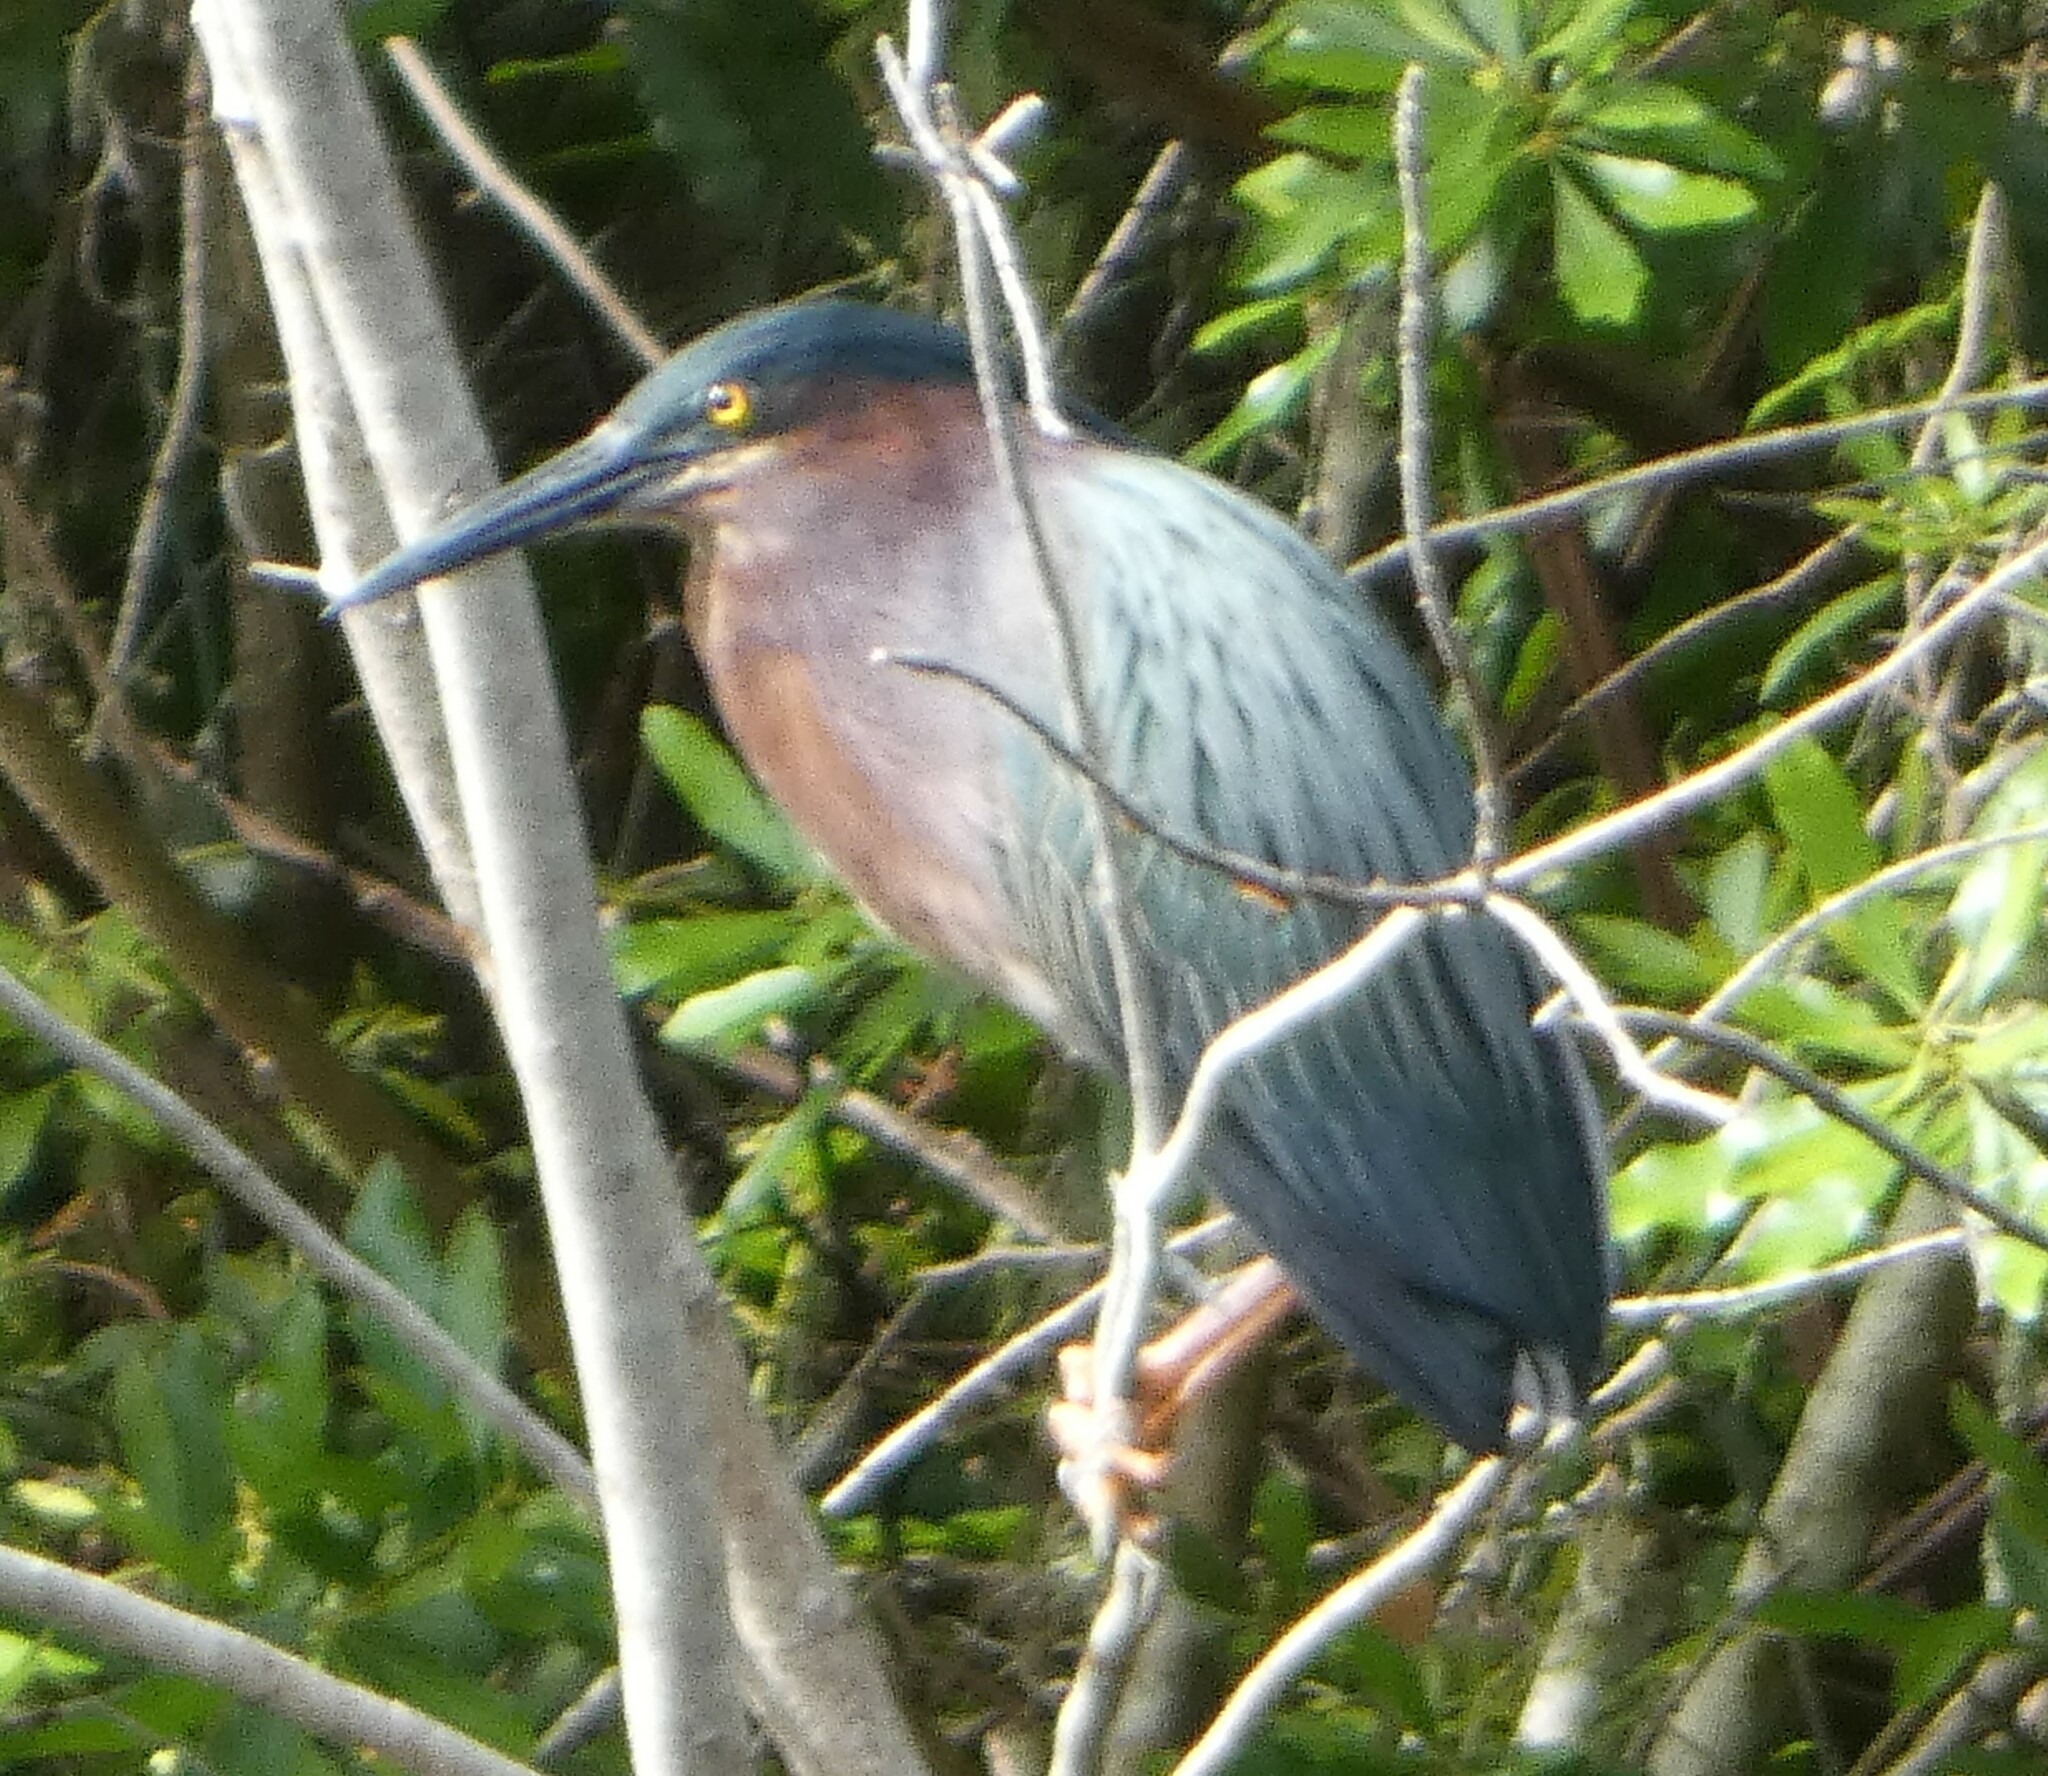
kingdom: Animalia
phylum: Chordata
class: Aves
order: Pelecaniformes
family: Ardeidae
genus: Butorides
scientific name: Butorides virescens
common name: Green heron
